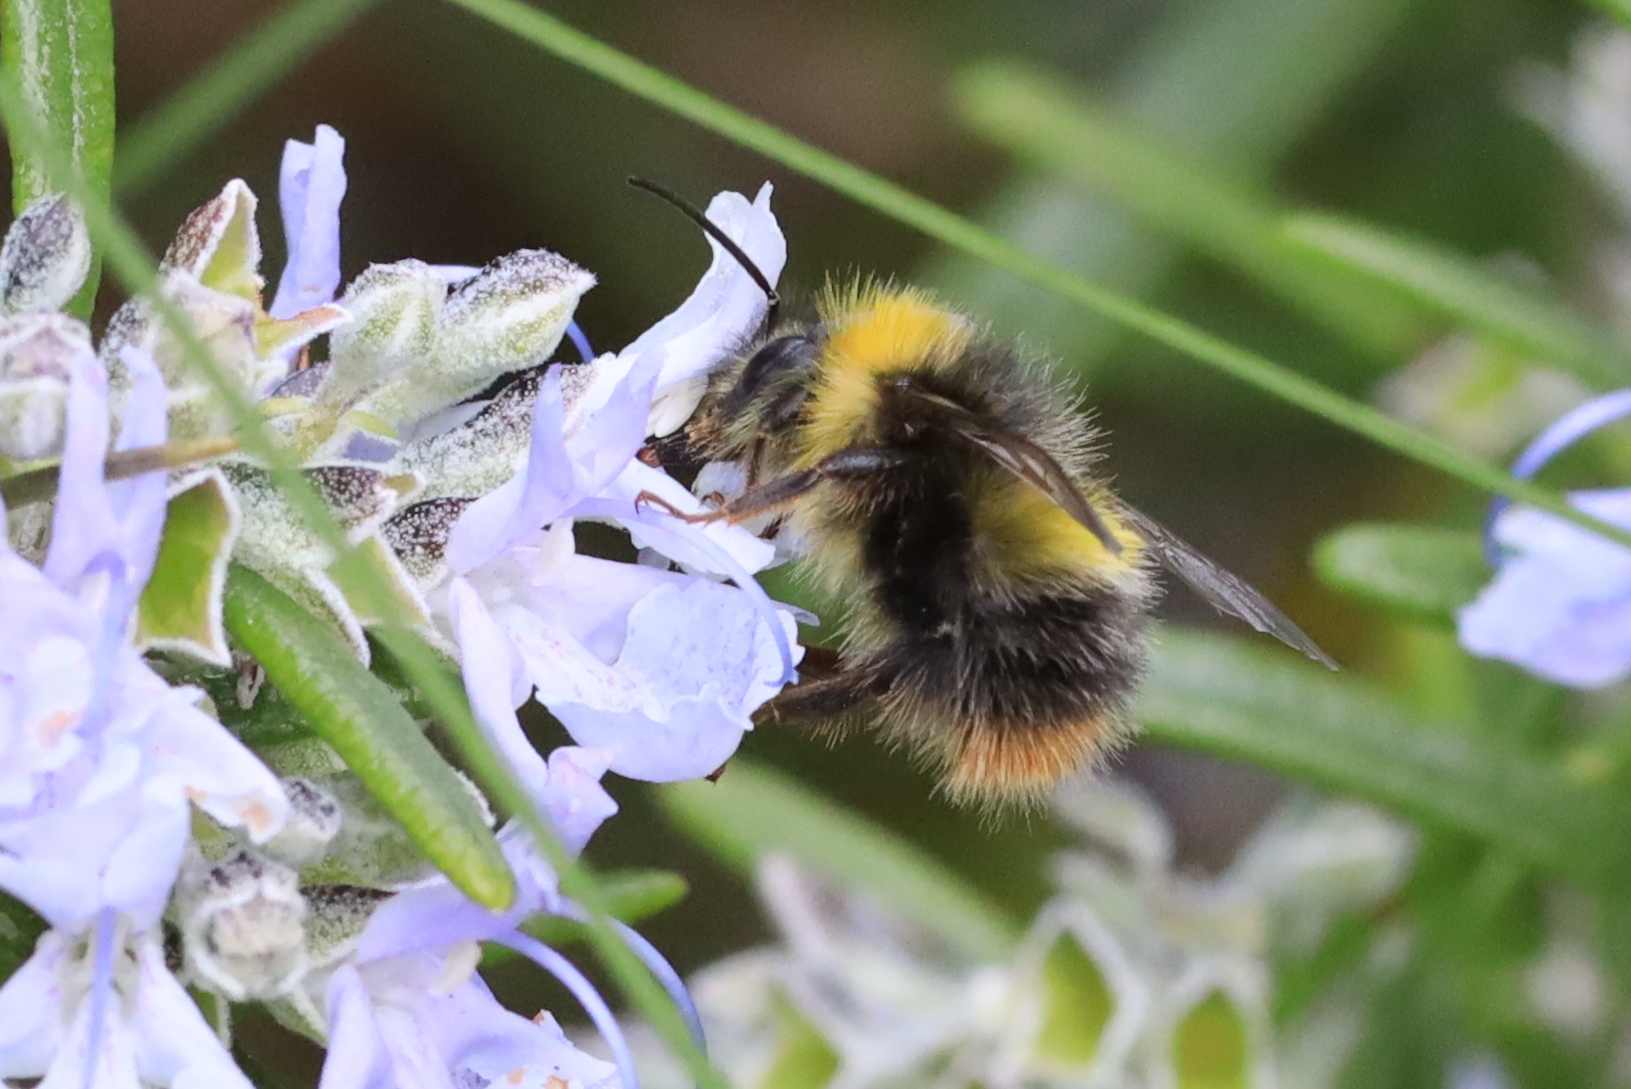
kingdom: Animalia
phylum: Arthropoda
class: Insecta
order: Hymenoptera
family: Apidae
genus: Bombus
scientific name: Bombus pratorum
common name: Early humble-bee
